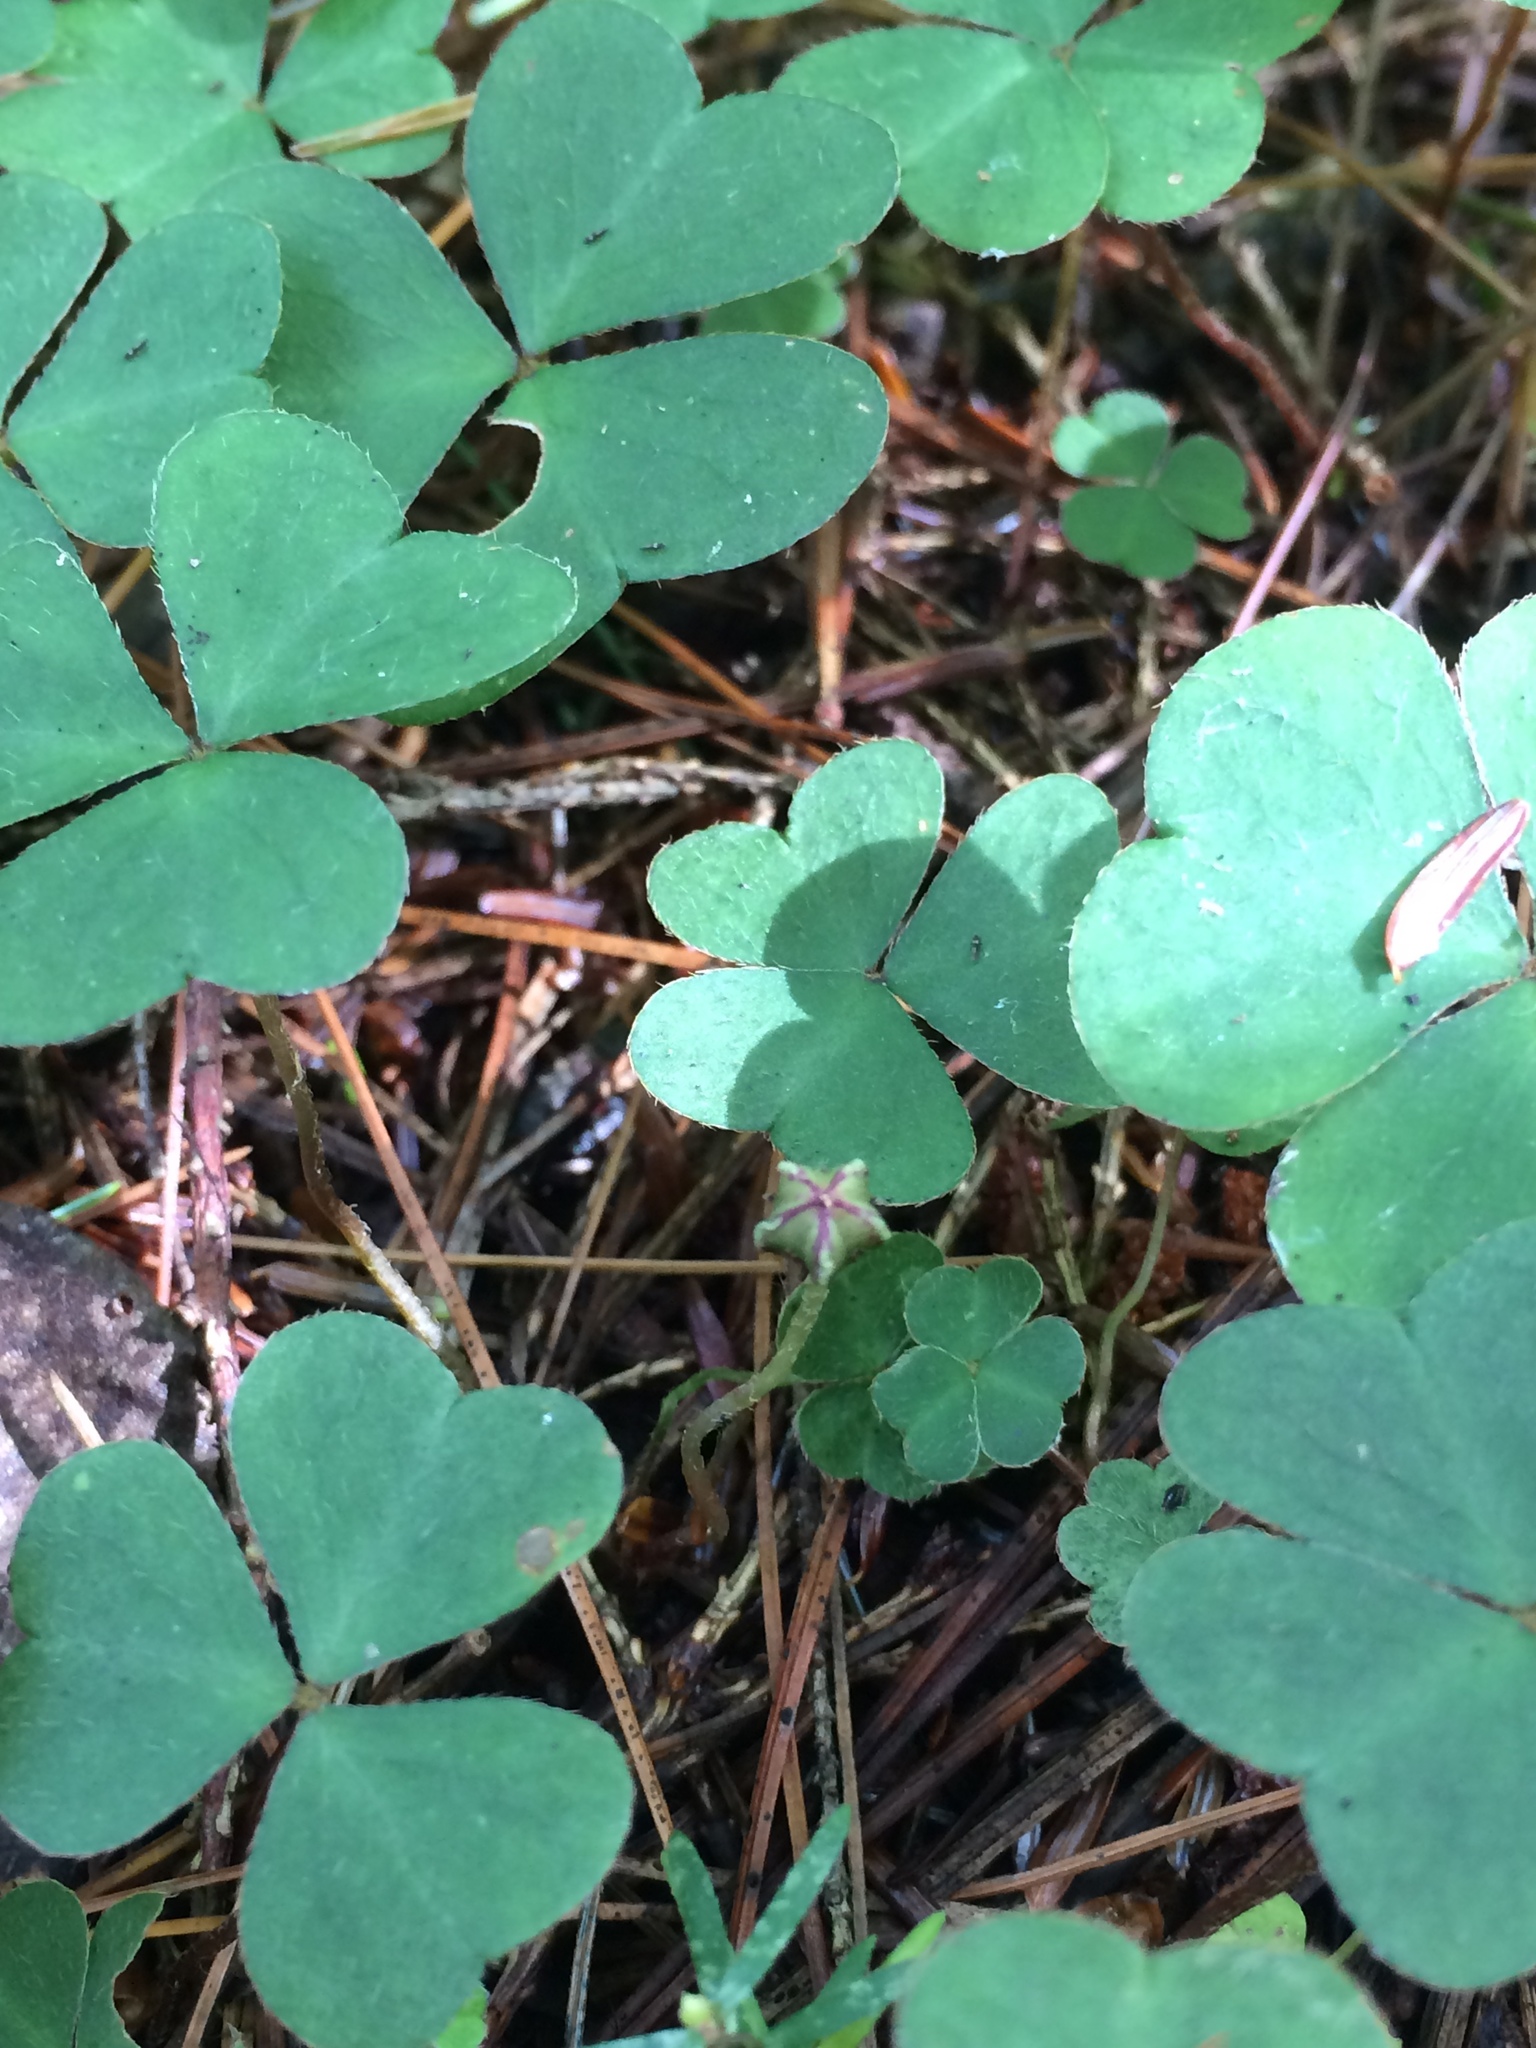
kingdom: Plantae
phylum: Tracheophyta
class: Magnoliopsida
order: Oxalidales
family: Oxalidaceae
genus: Oxalis
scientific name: Oxalis montana
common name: American wood-sorrel
